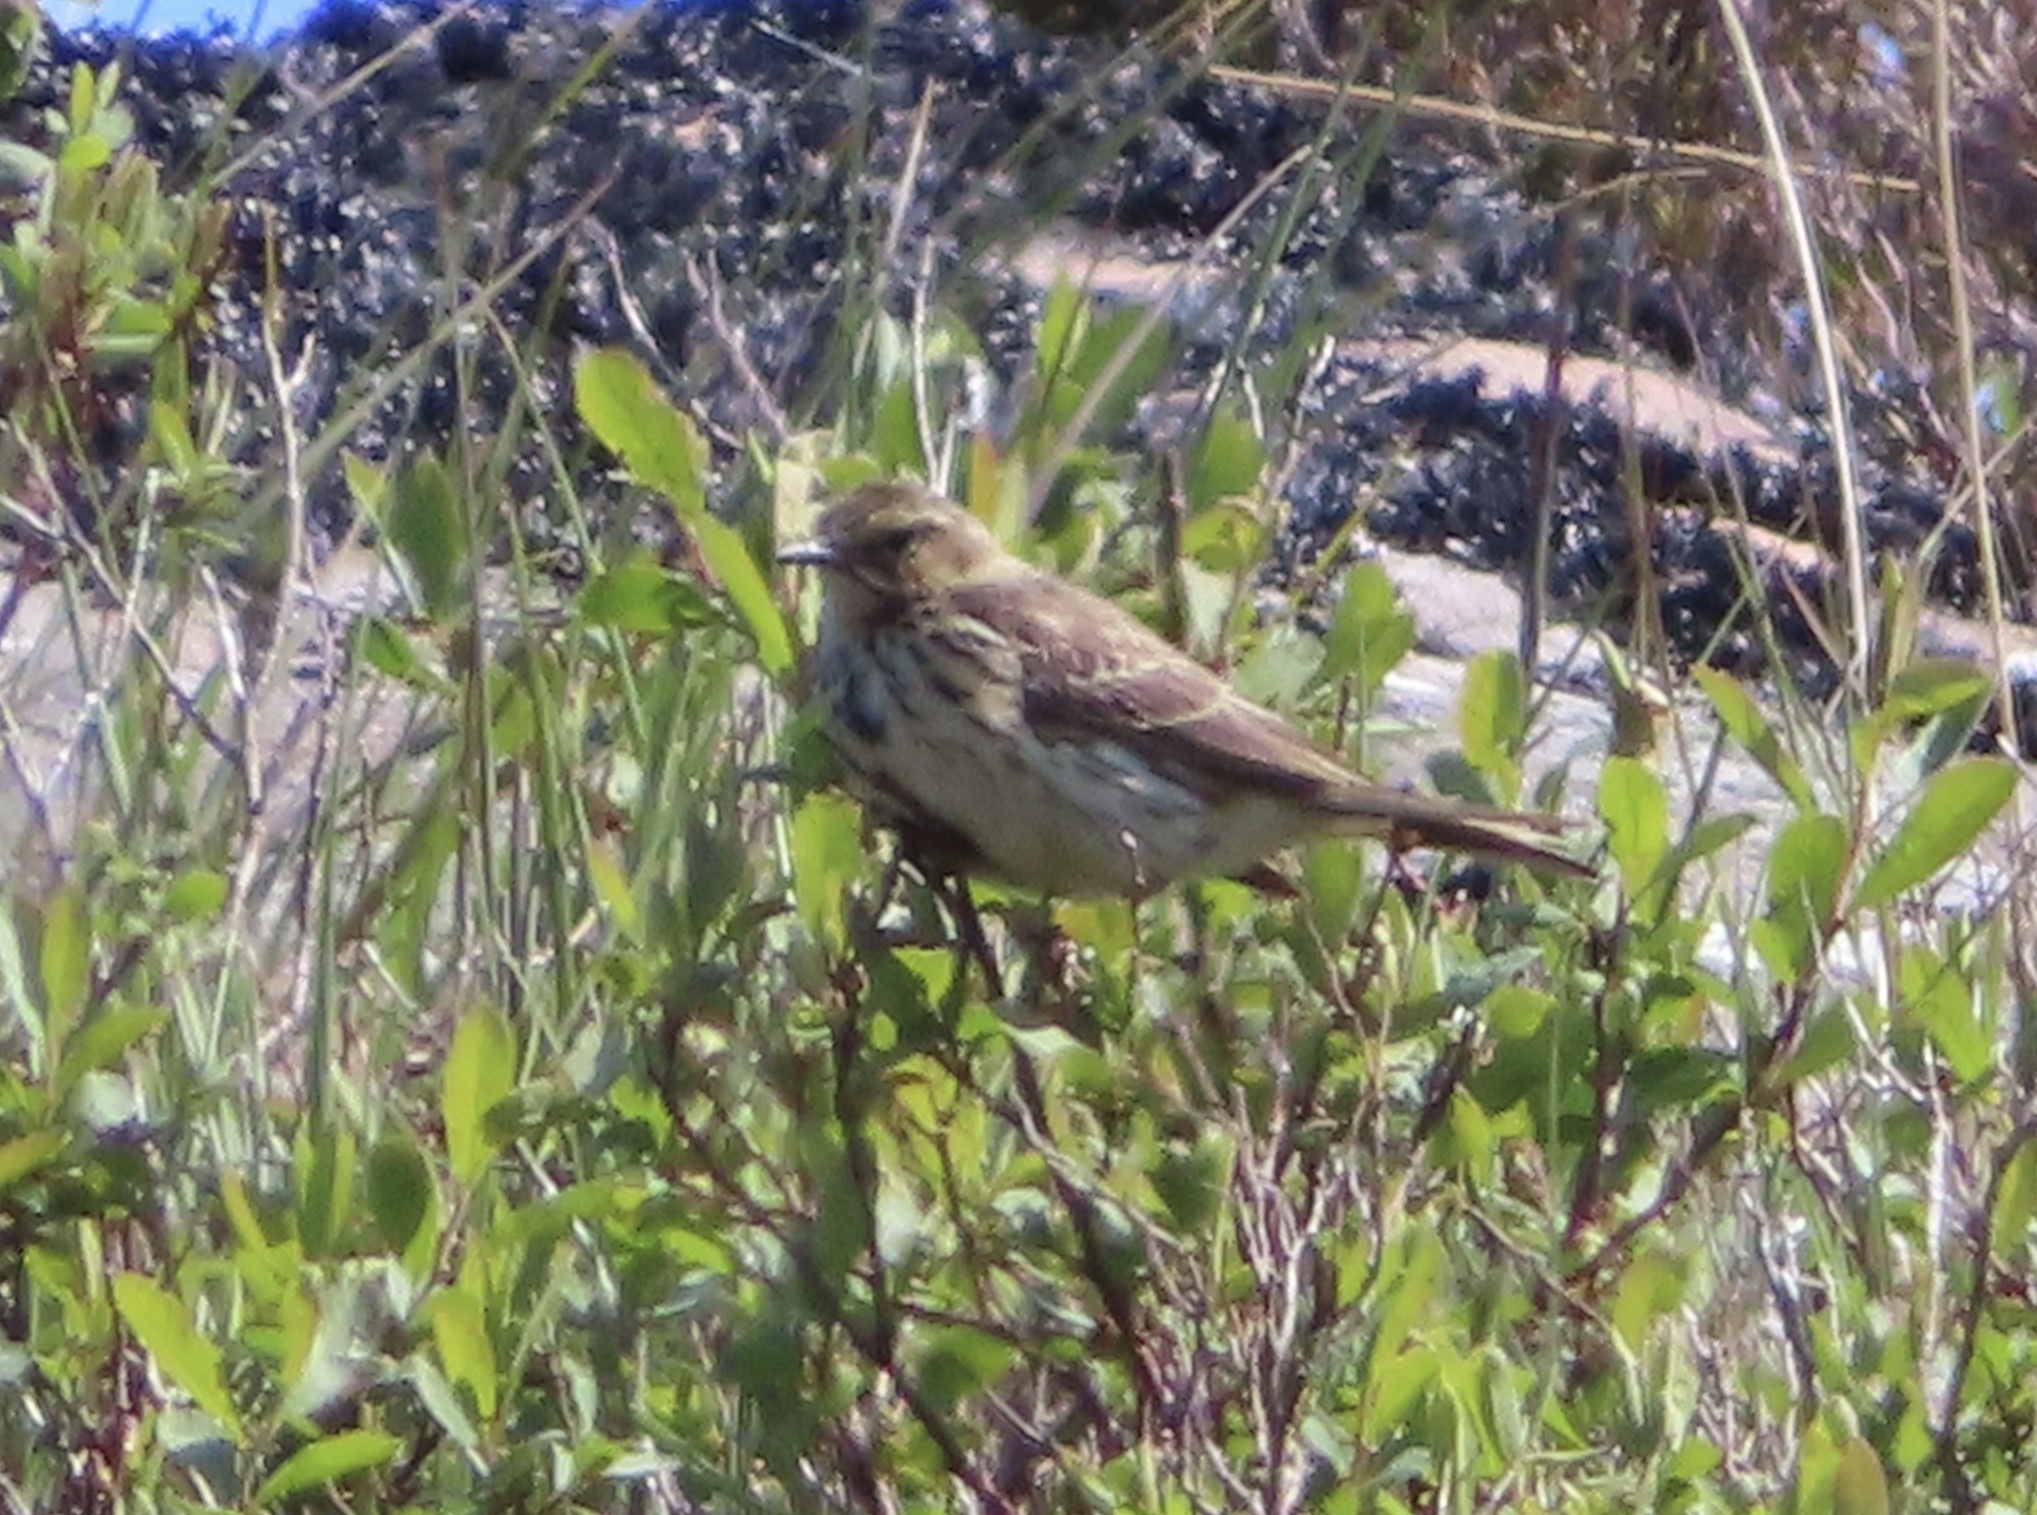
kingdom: Animalia
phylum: Chordata
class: Aves
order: Passeriformes
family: Motacillidae
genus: Anthus
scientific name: Anthus pratensis
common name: Meadow pipit
